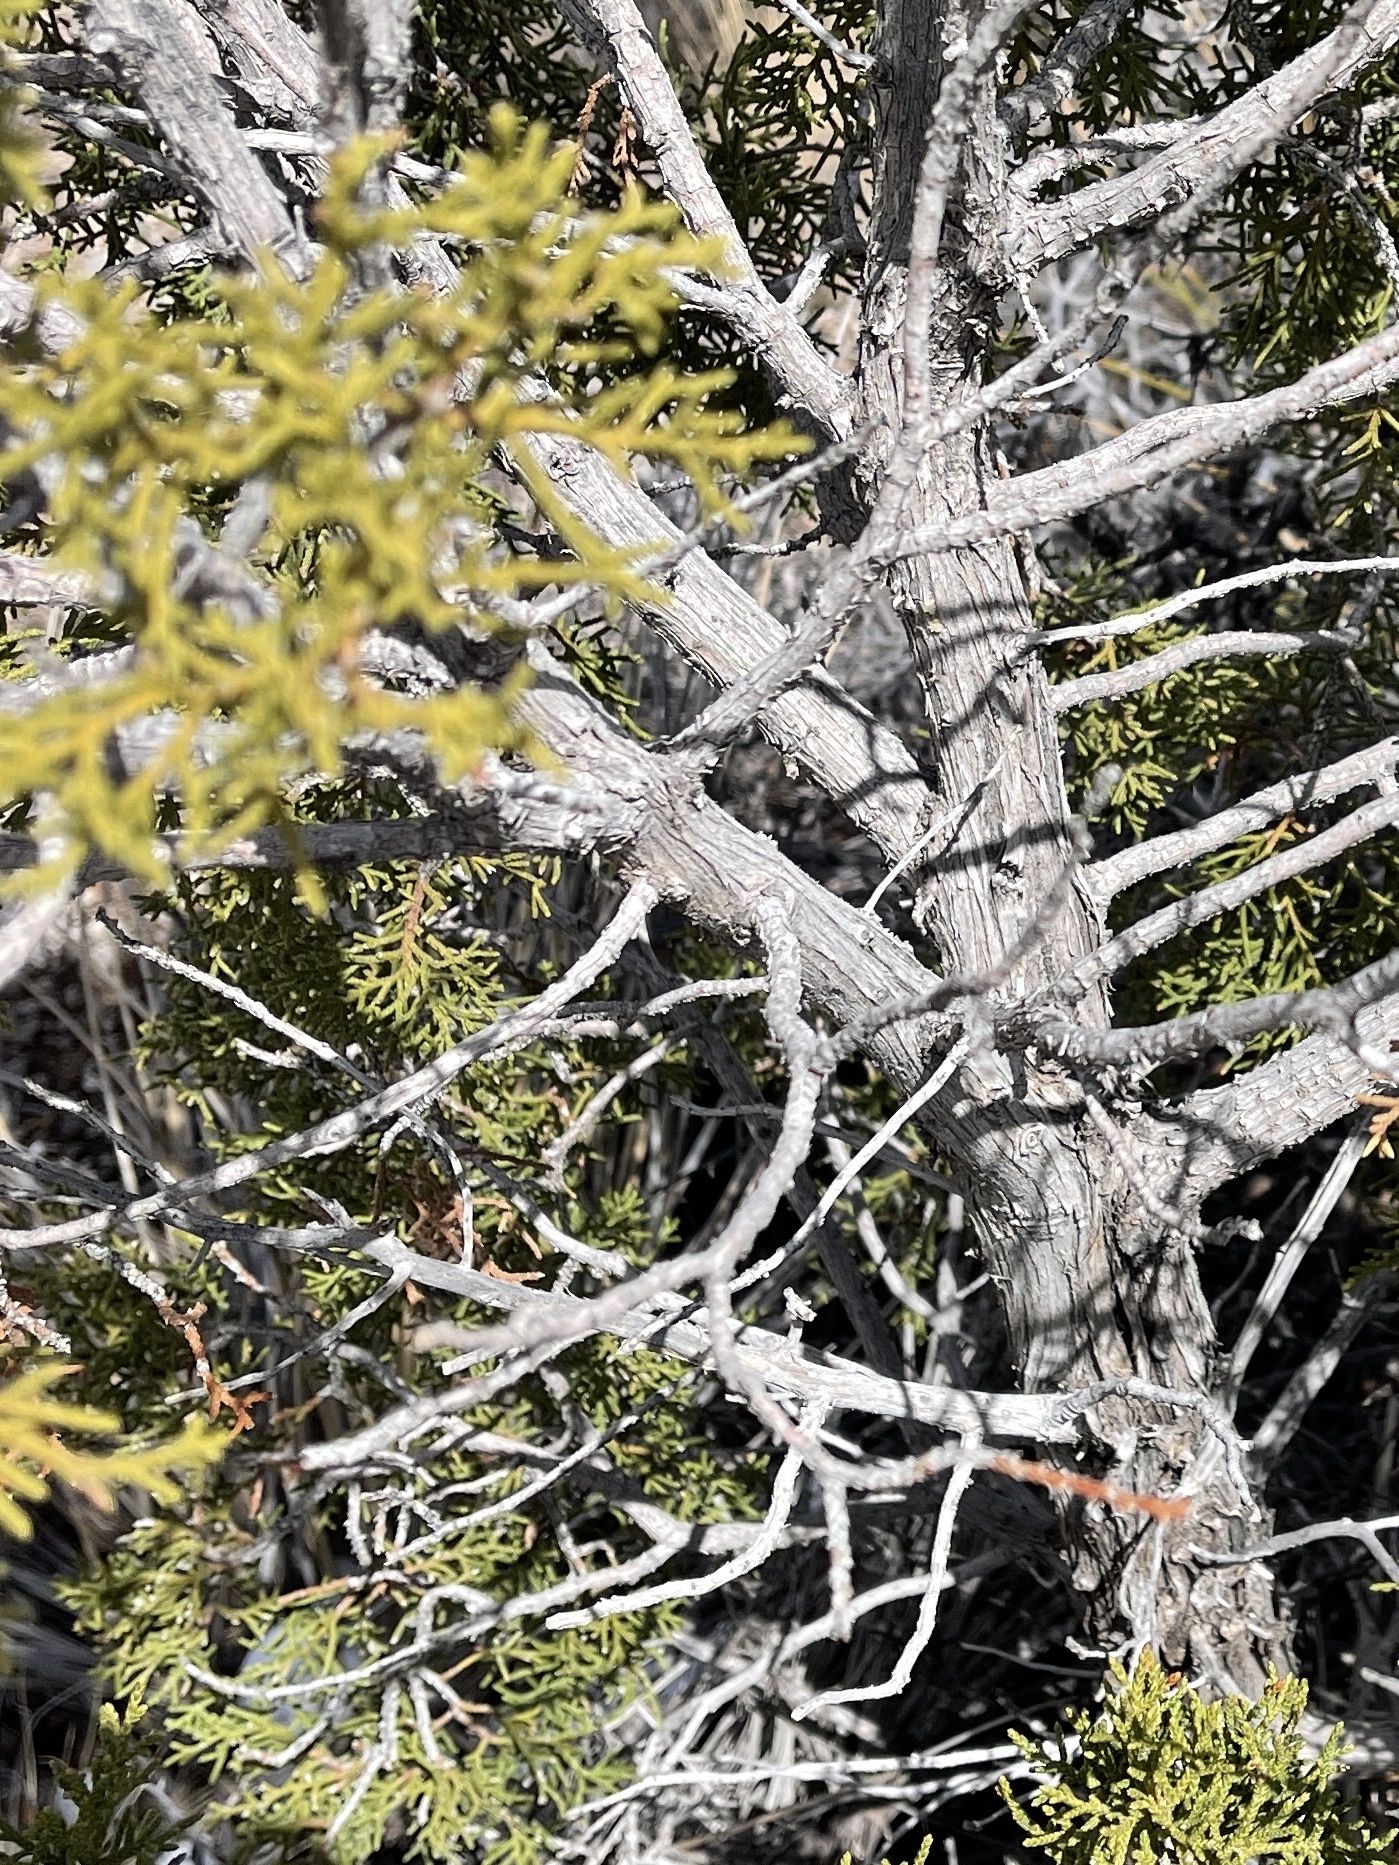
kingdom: Plantae
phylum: Tracheophyta
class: Pinopsida
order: Pinales
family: Cupressaceae
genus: Juniperus
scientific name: Juniperus monosperma
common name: One-seed juniper
